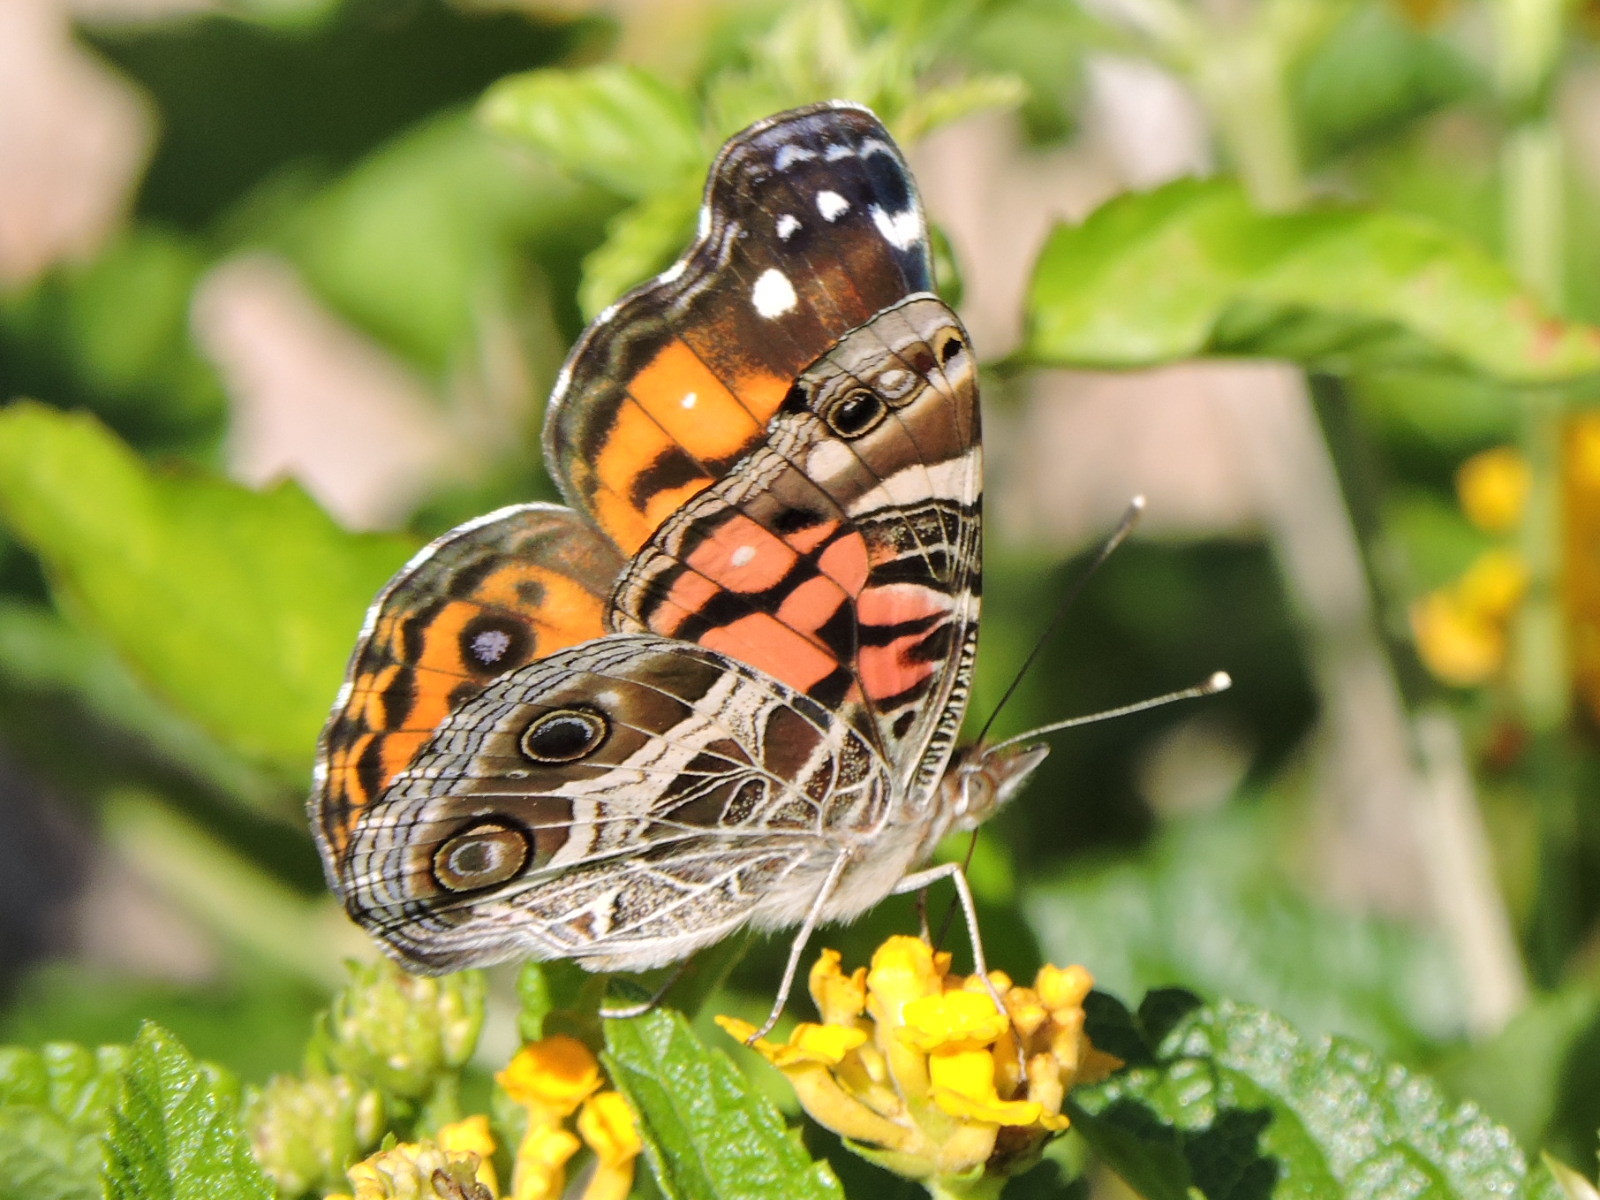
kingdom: Animalia
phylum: Arthropoda
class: Insecta
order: Lepidoptera
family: Nymphalidae
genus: Vanessa
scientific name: Vanessa virginiensis
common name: American lady
